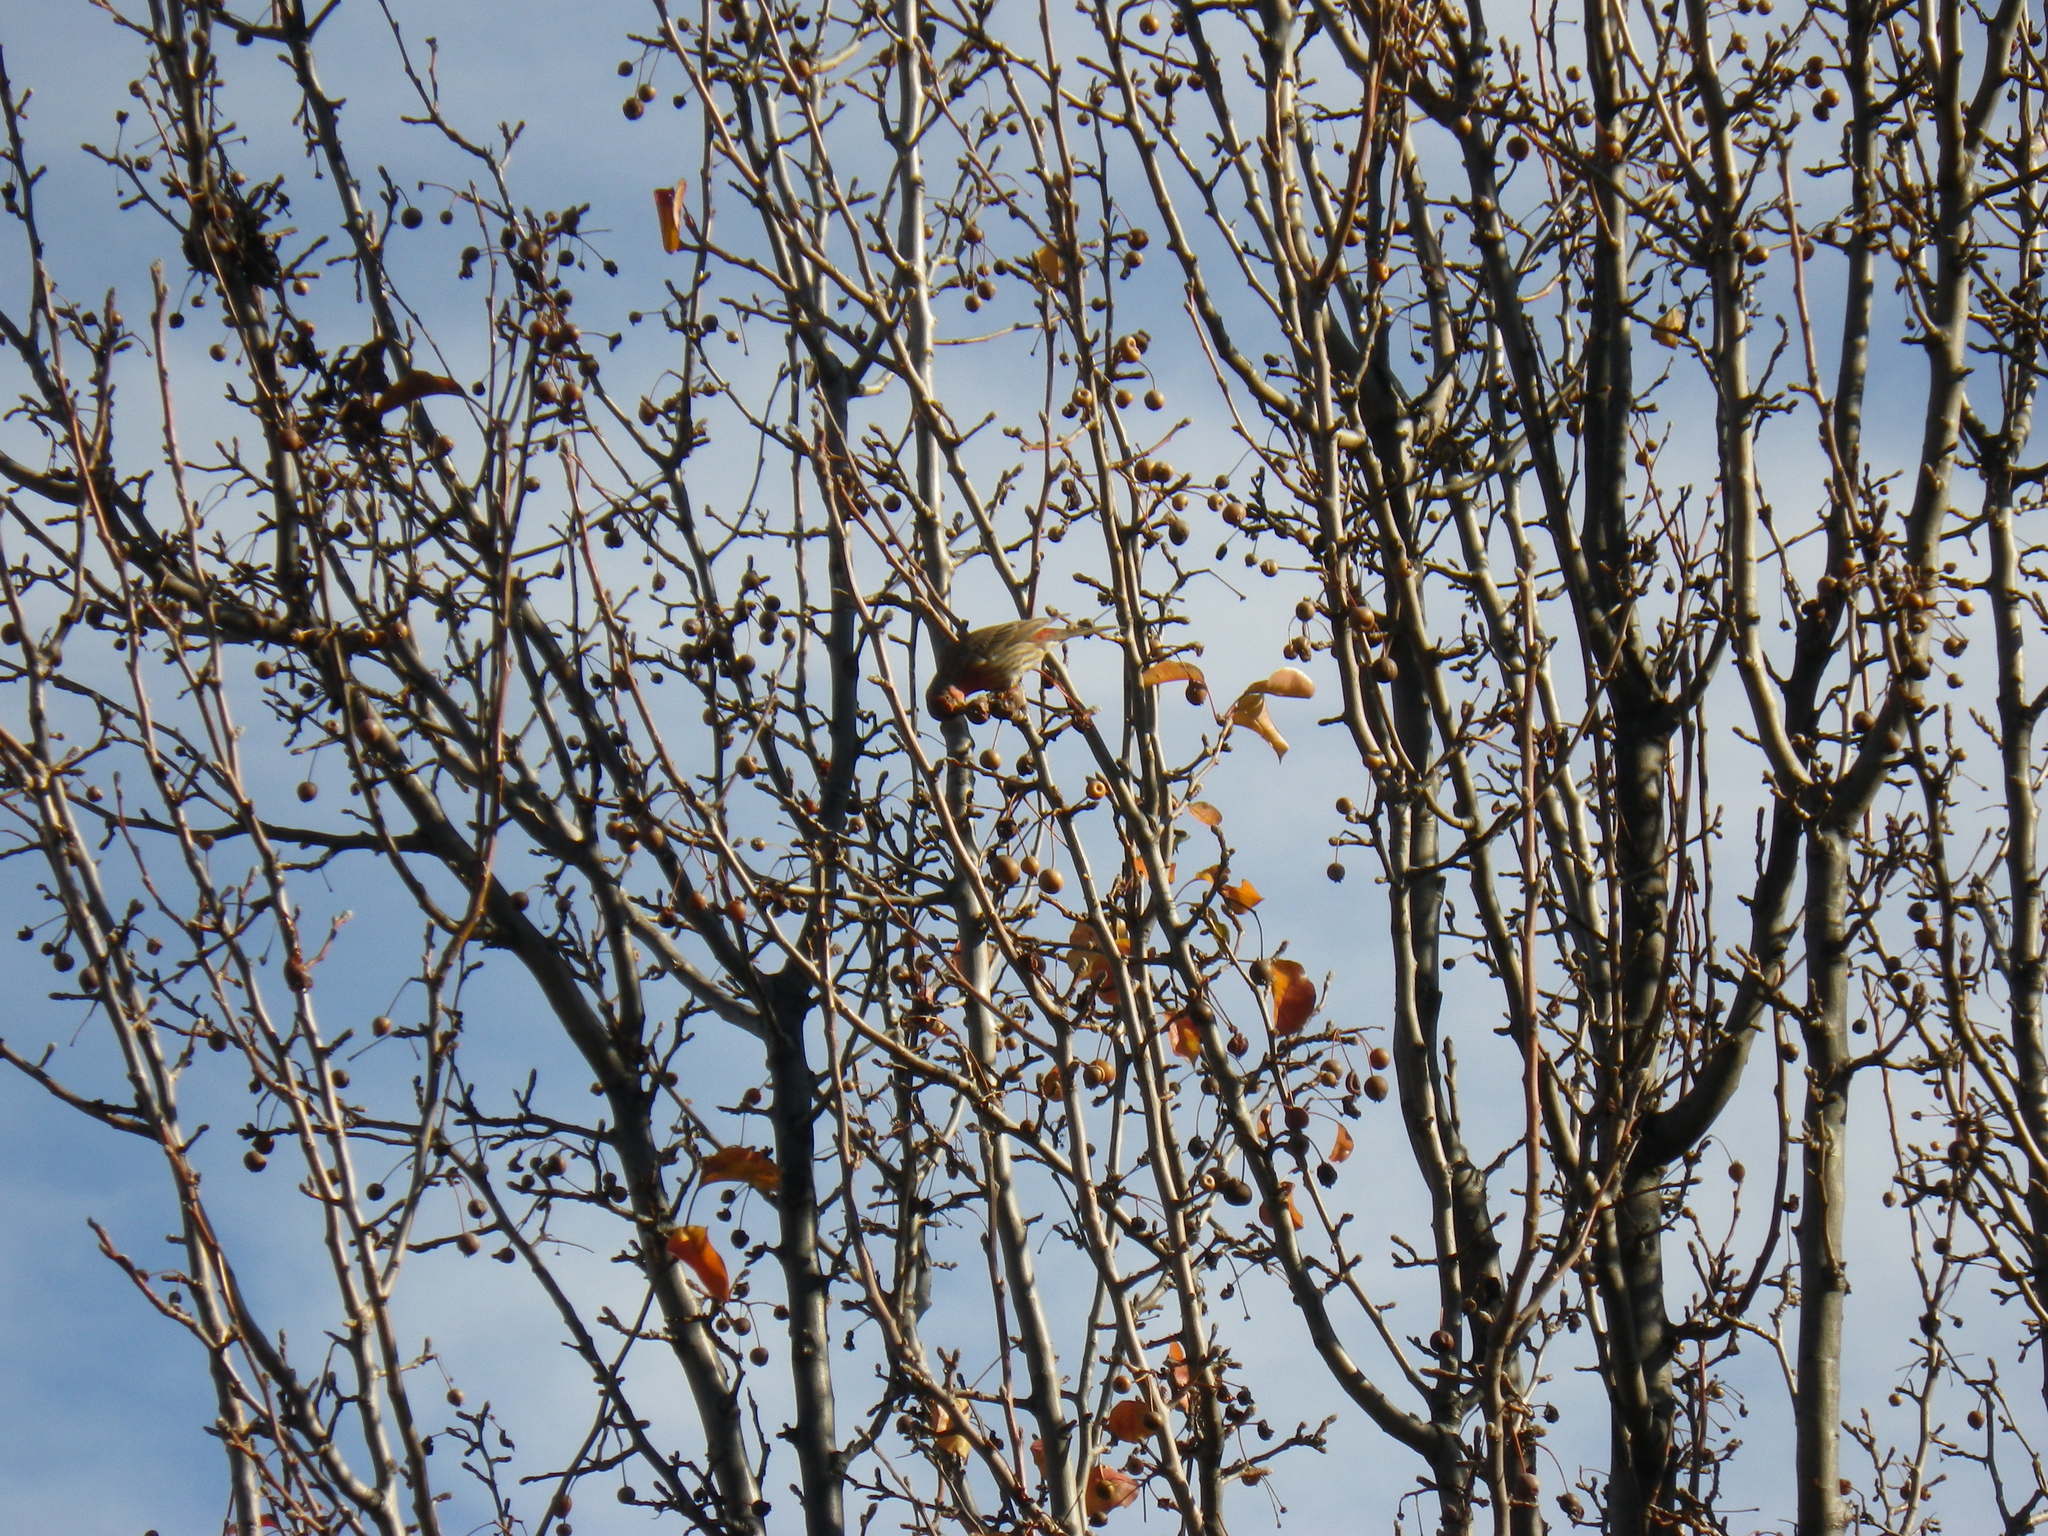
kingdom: Animalia
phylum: Chordata
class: Aves
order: Passeriformes
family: Fringillidae
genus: Haemorhous
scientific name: Haemorhous mexicanus
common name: House finch
